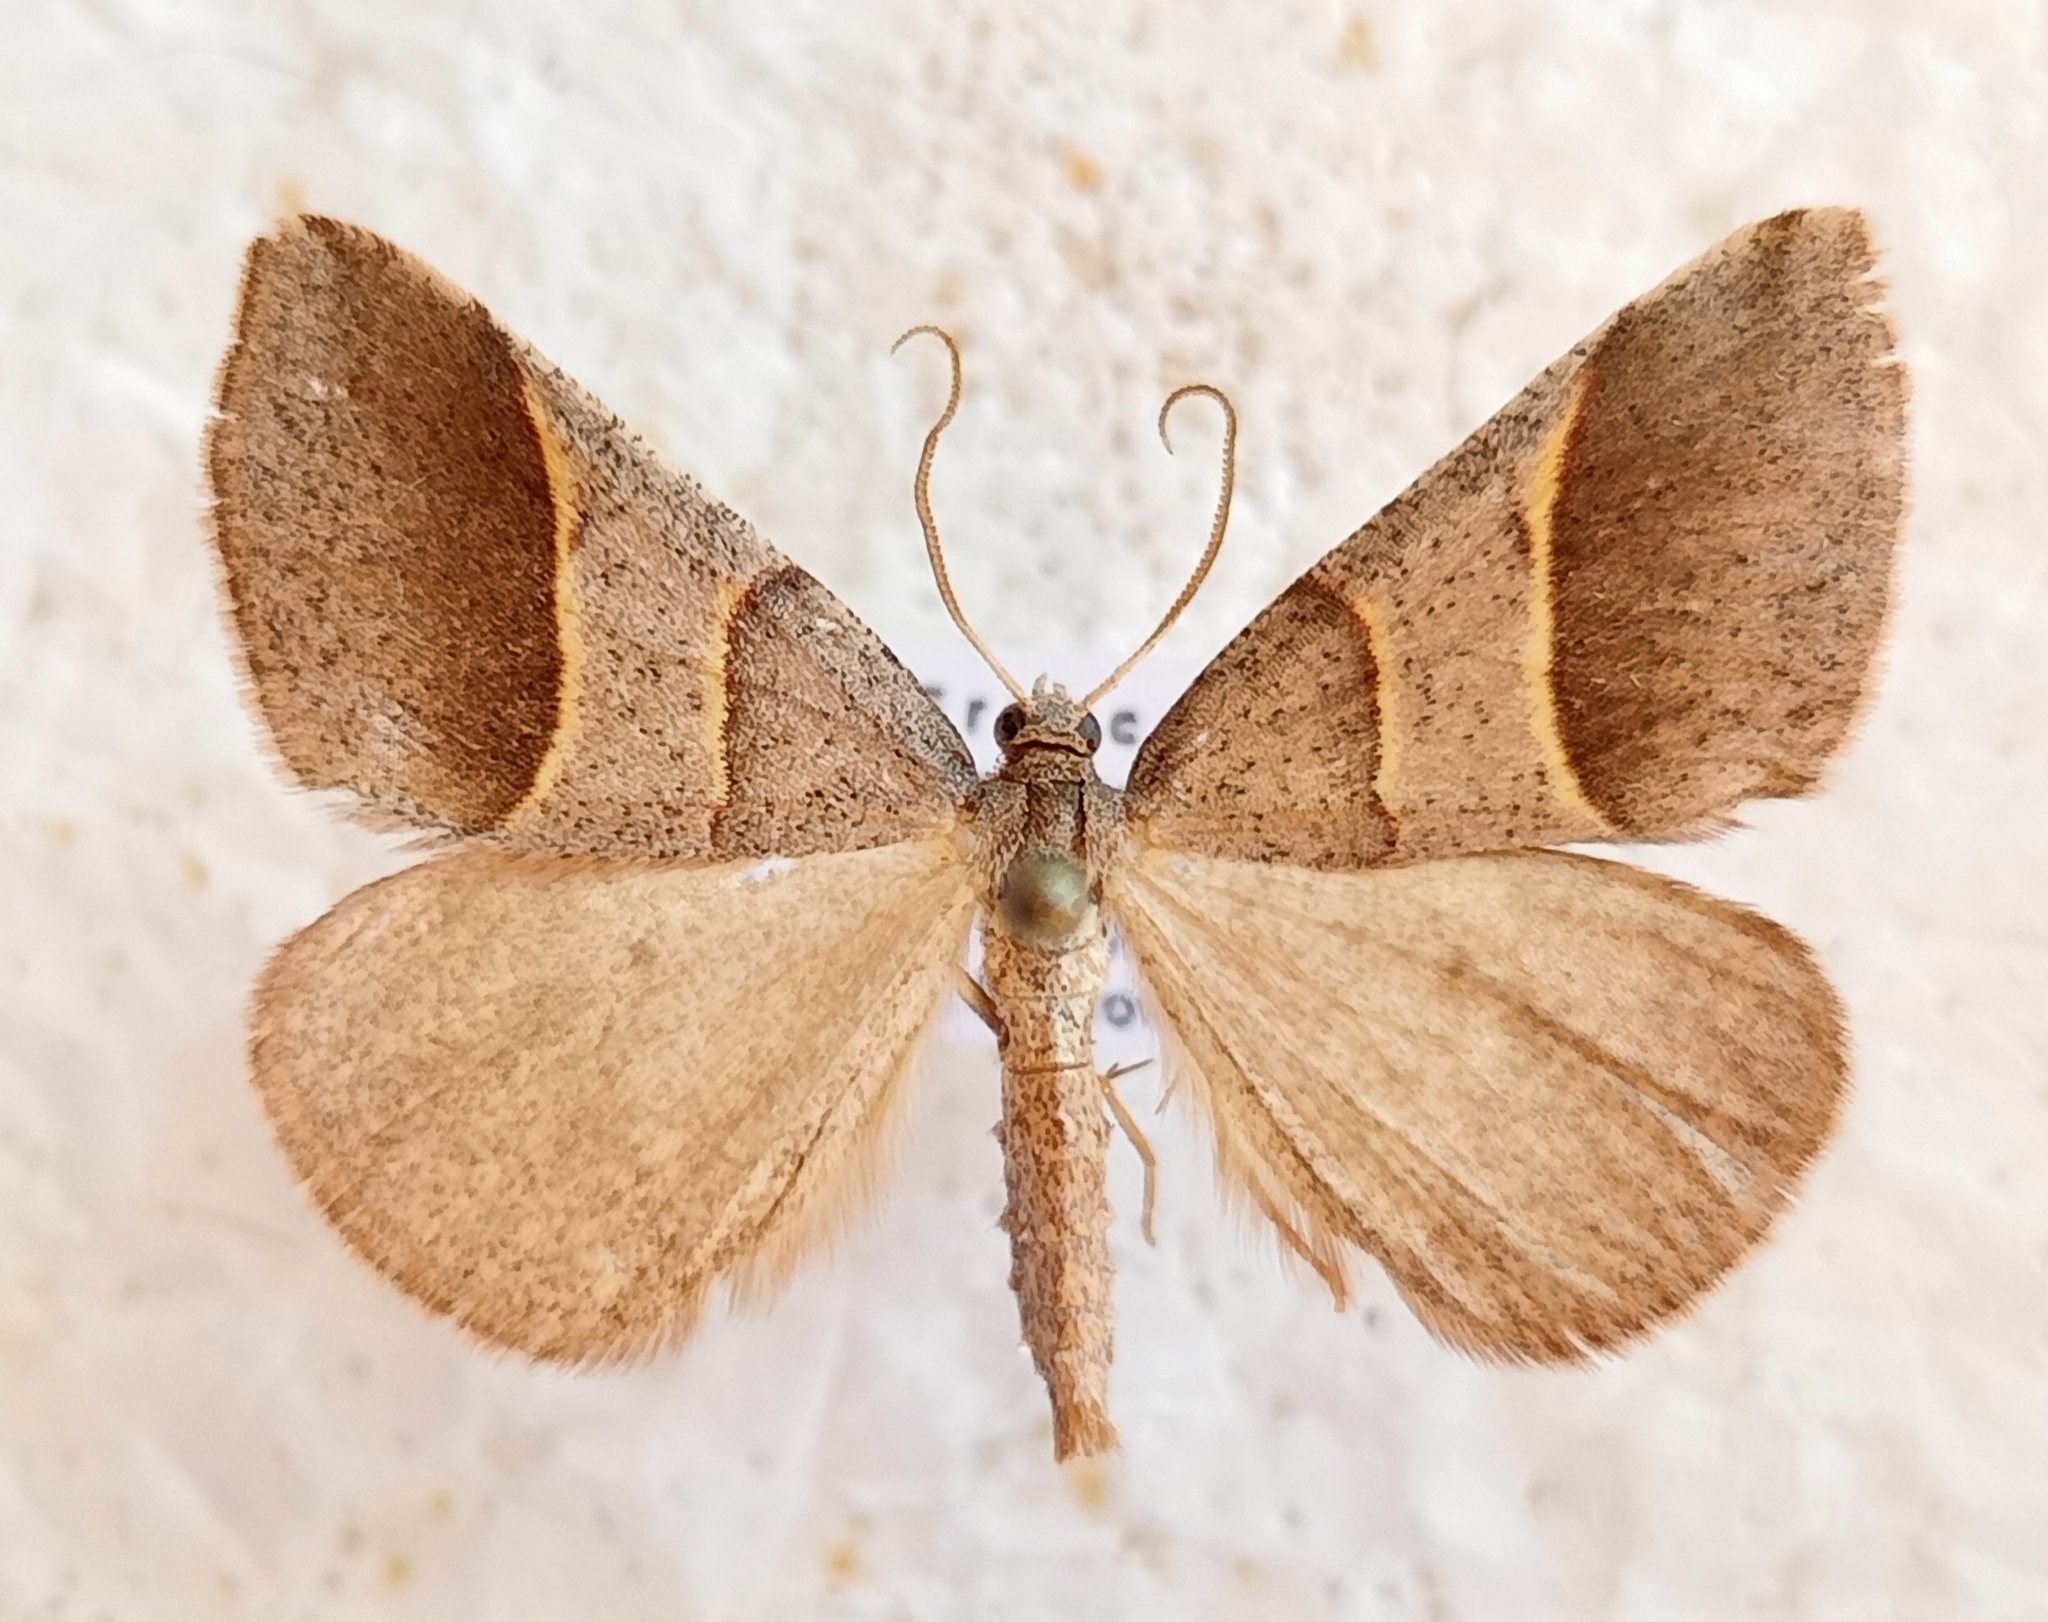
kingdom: Animalia
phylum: Arthropoda
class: Insecta
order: Lepidoptera
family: Pterophoridae
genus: Pterophorus
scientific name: Pterophorus Petrophora convergata
